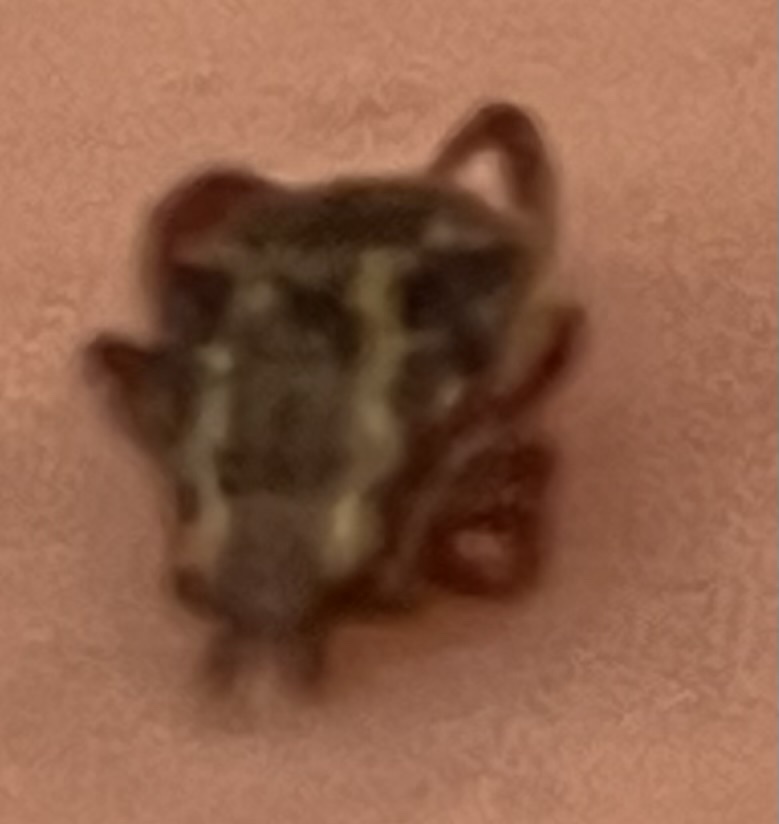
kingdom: Animalia
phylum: Arthropoda
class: Arachnida
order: Ixodida
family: Ixodidae
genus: Dermacentor
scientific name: Dermacentor variabilis
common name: American dog tick
